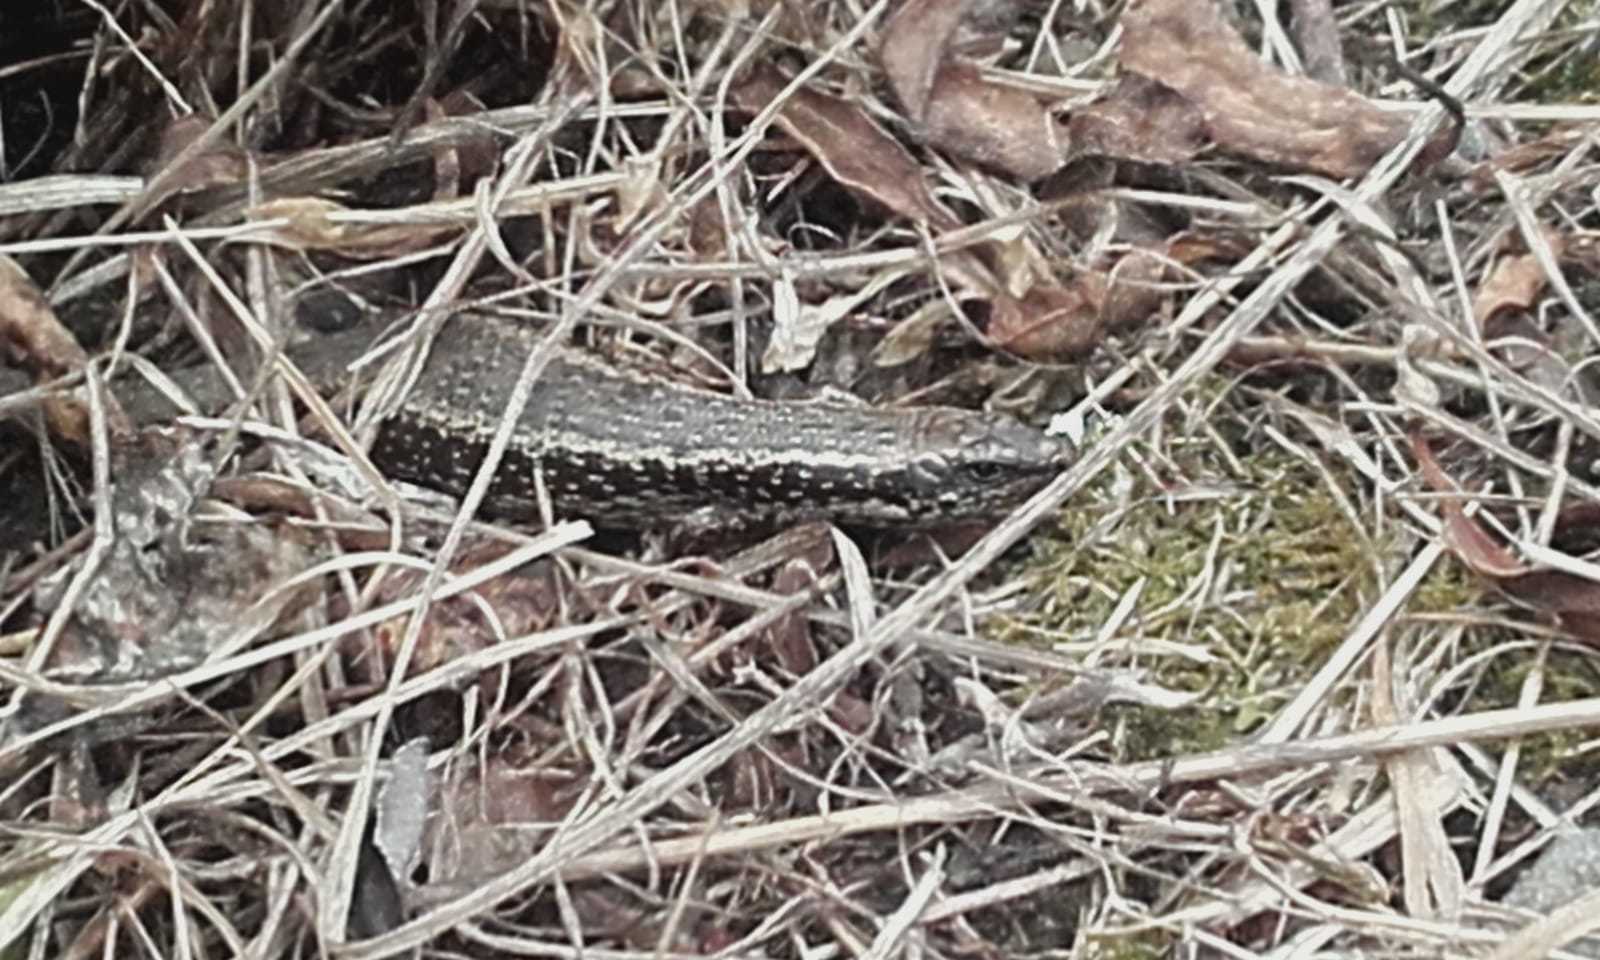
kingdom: Animalia
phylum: Chordata
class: Squamata
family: Scincidae
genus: Oligosoma
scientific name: Oligosoma kokowai
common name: Northern spotted skink
